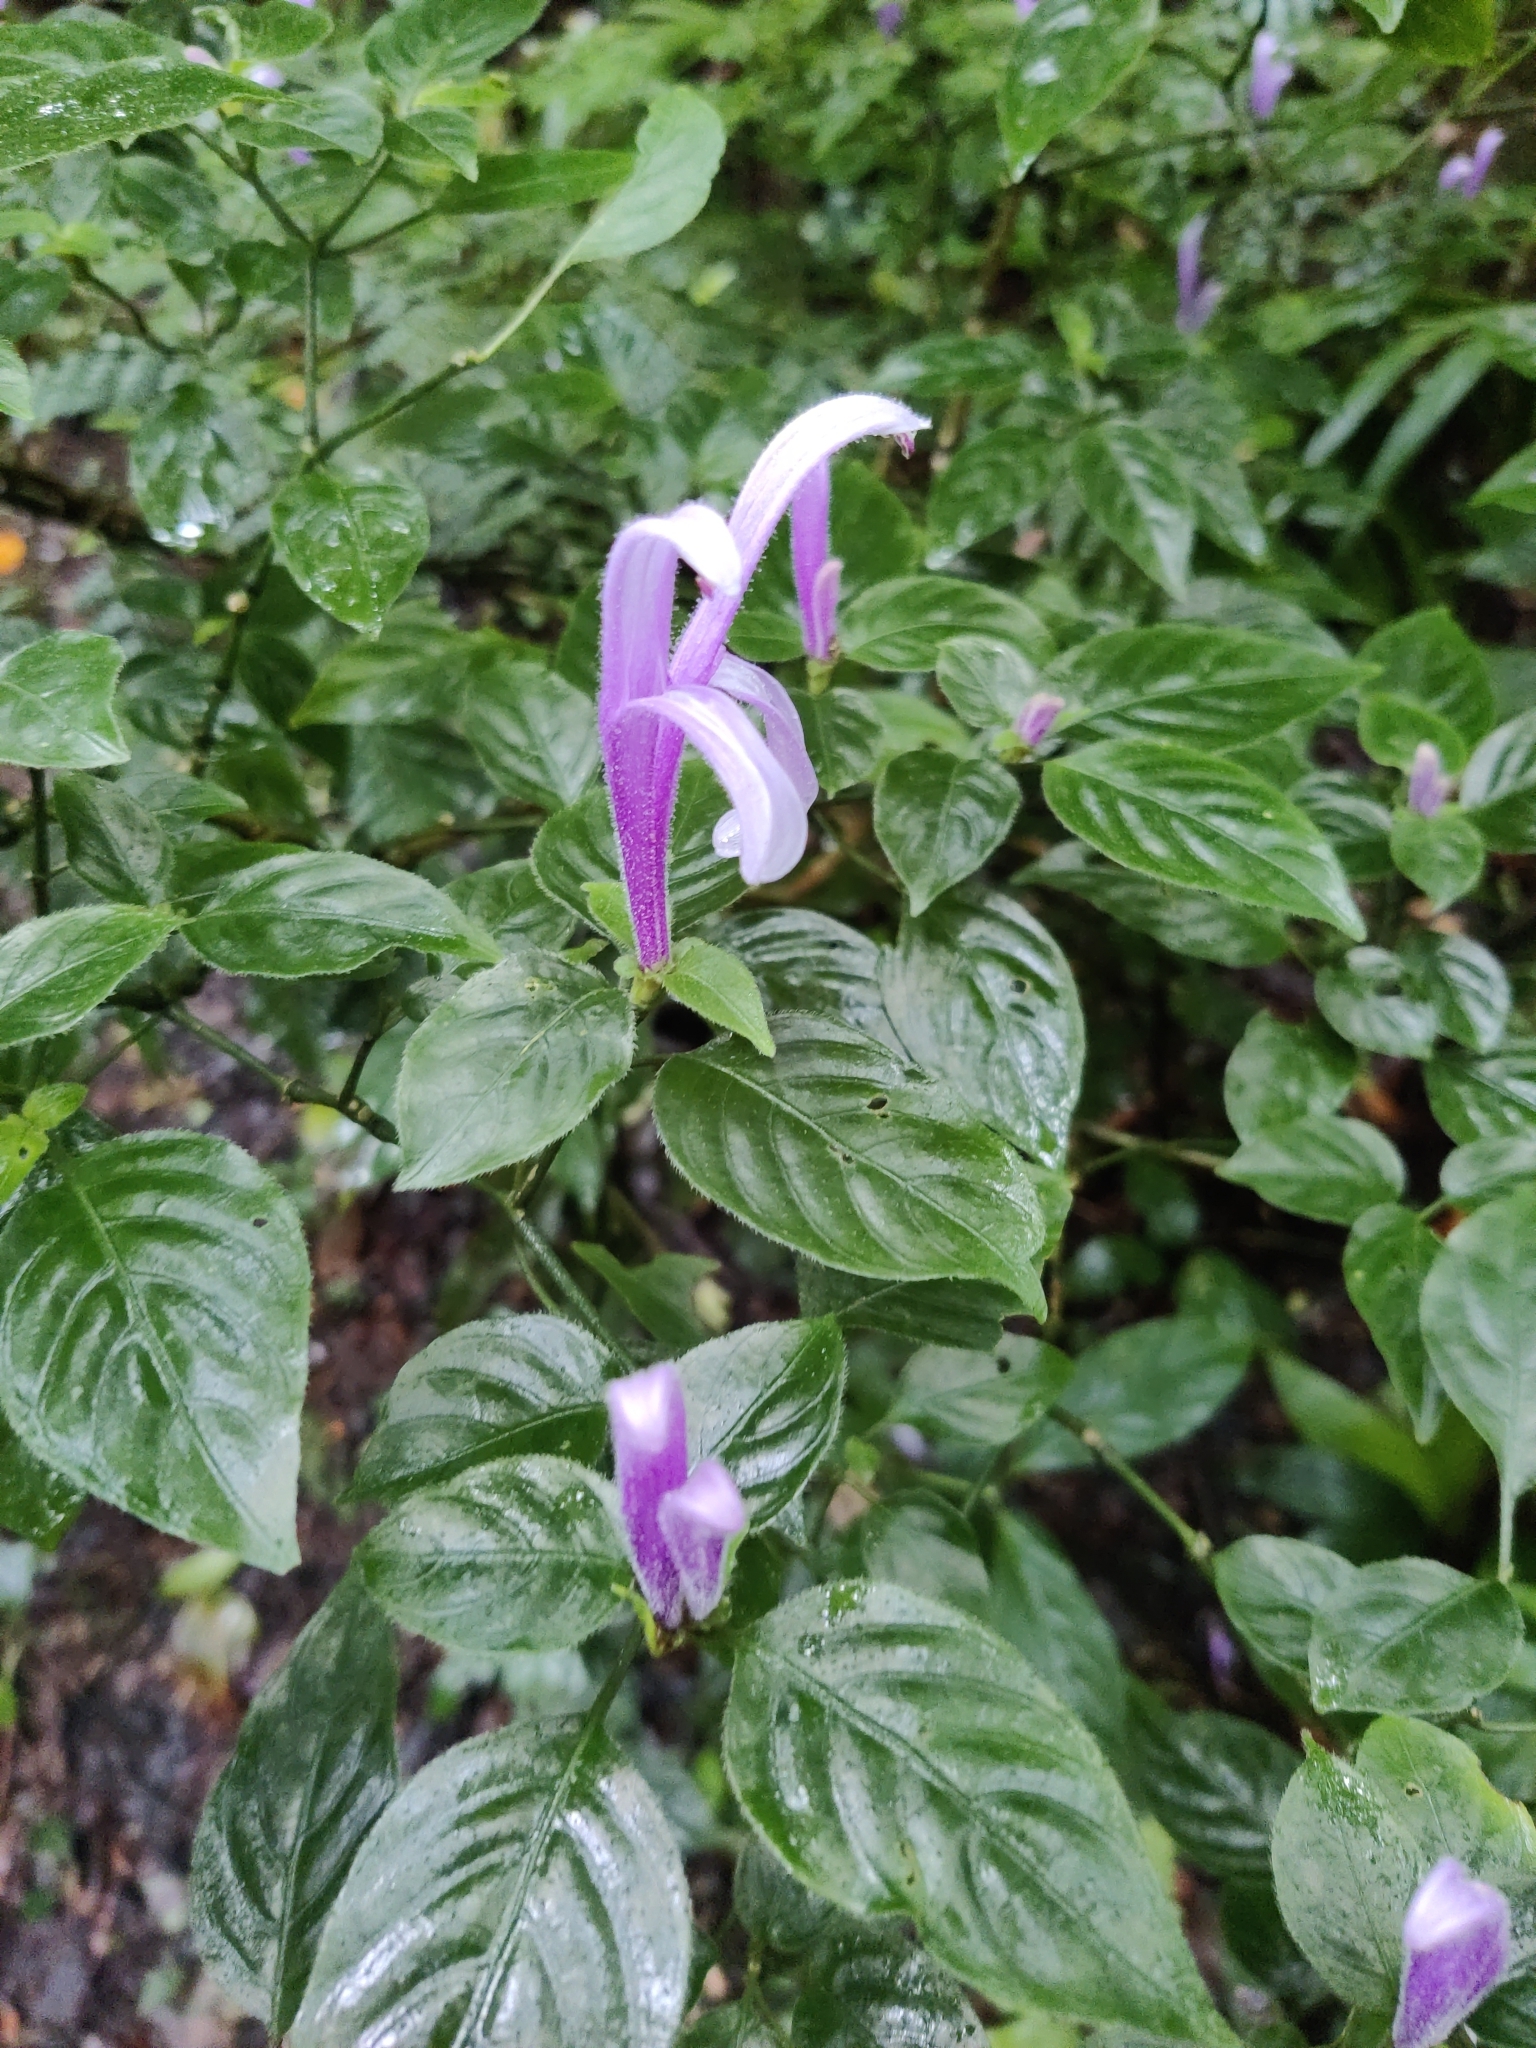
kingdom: Plantae
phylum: Tracheophyta
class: Magnoliopsida
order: Lamiales
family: Acanthaceae
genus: Poikilacanthus
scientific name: Poikilacanthus macranthus
